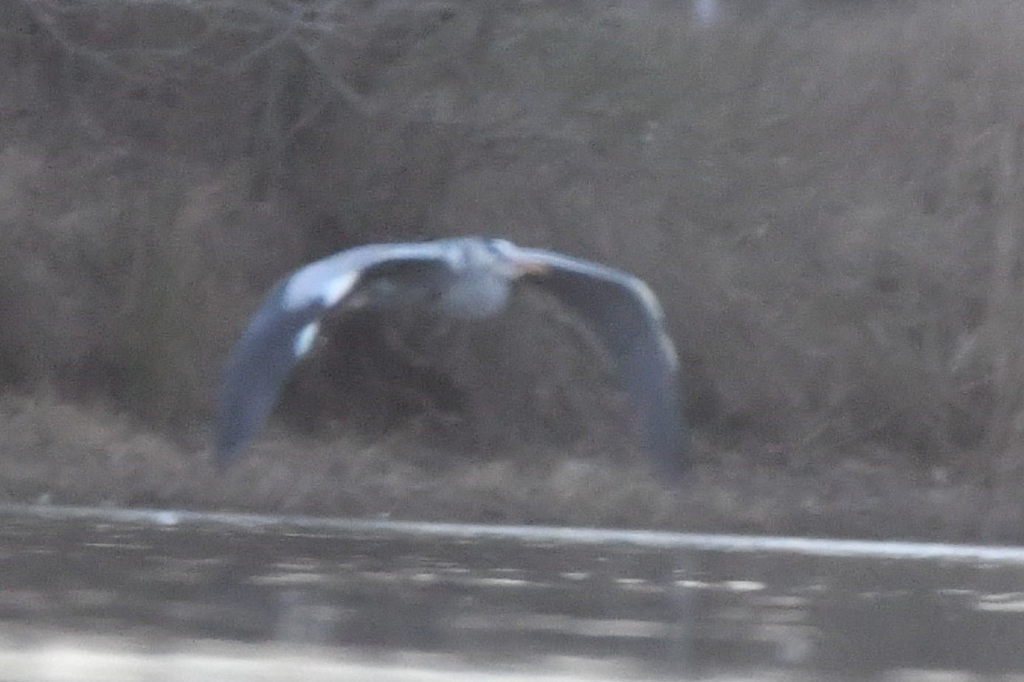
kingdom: Animalia
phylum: Chordata
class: Aves
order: Pelecaniformes
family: Ardeidae
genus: Ardea
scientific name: Ardea cinerea
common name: Grey heron
